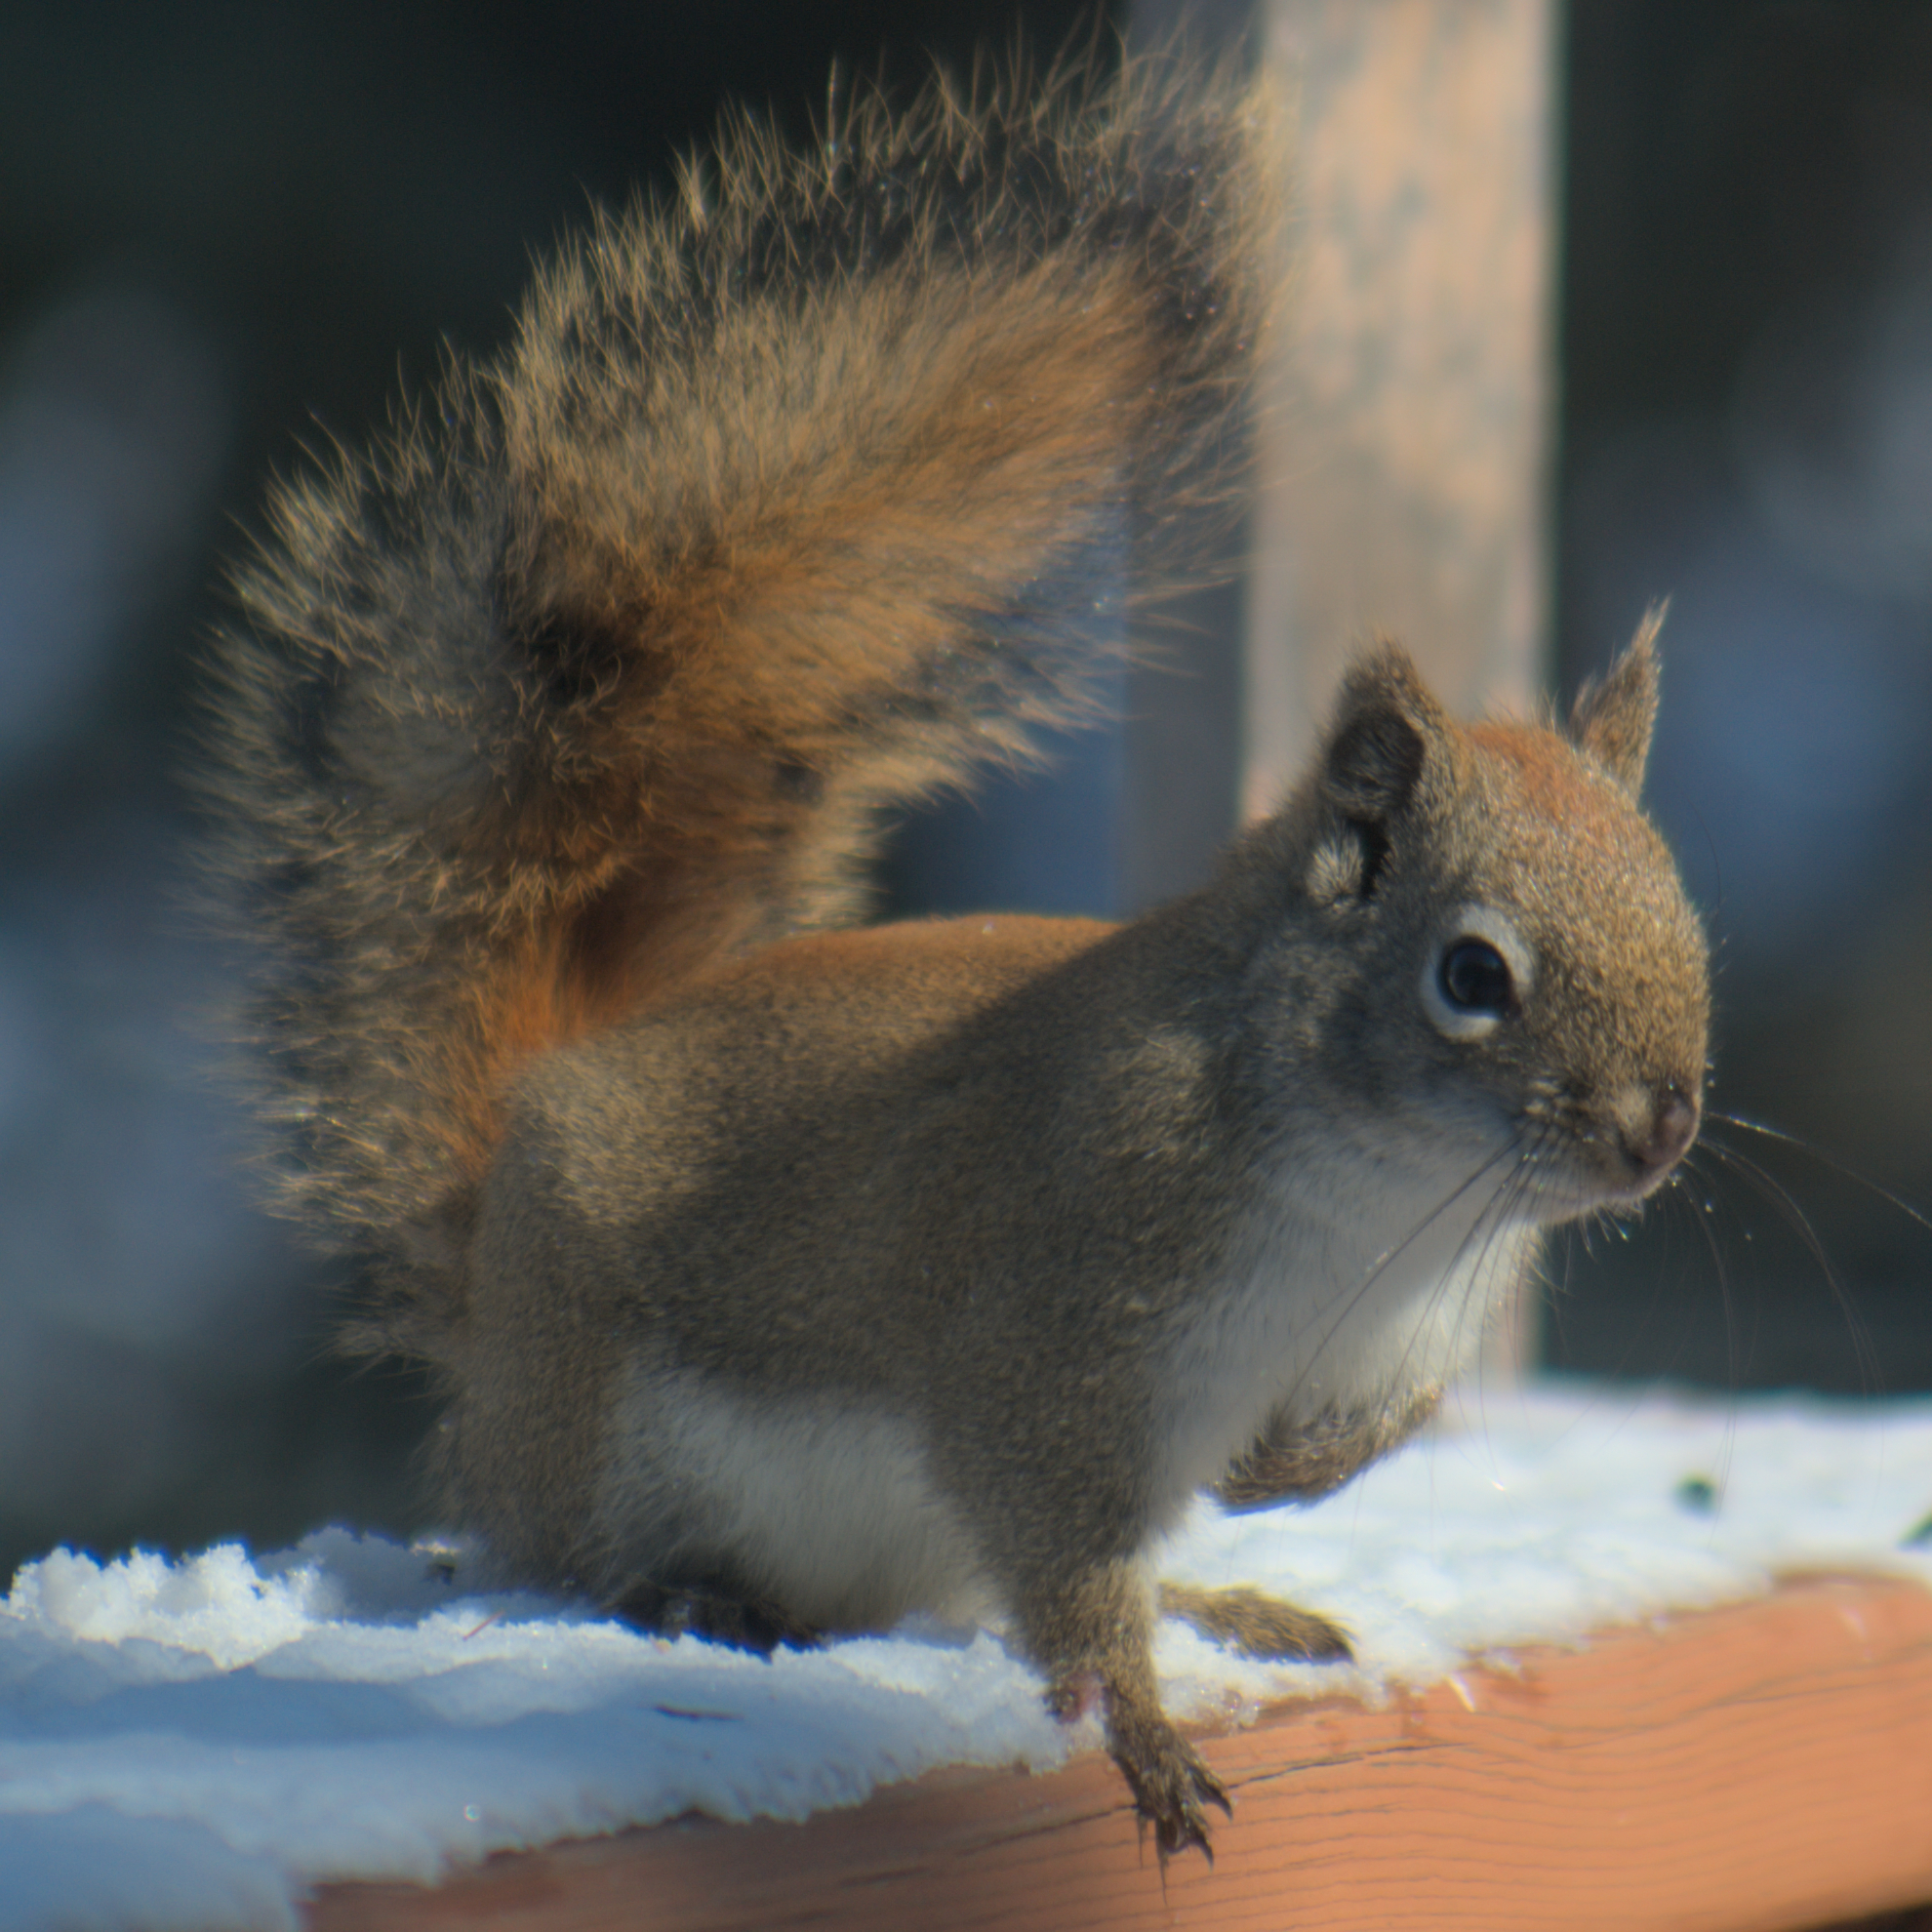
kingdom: Animalia
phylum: Chordata
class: Mammalia
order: Rodentia
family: Sciuridae
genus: Tamiasciurus
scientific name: Tamiasciurus hudsonicus
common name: Red squirrel
